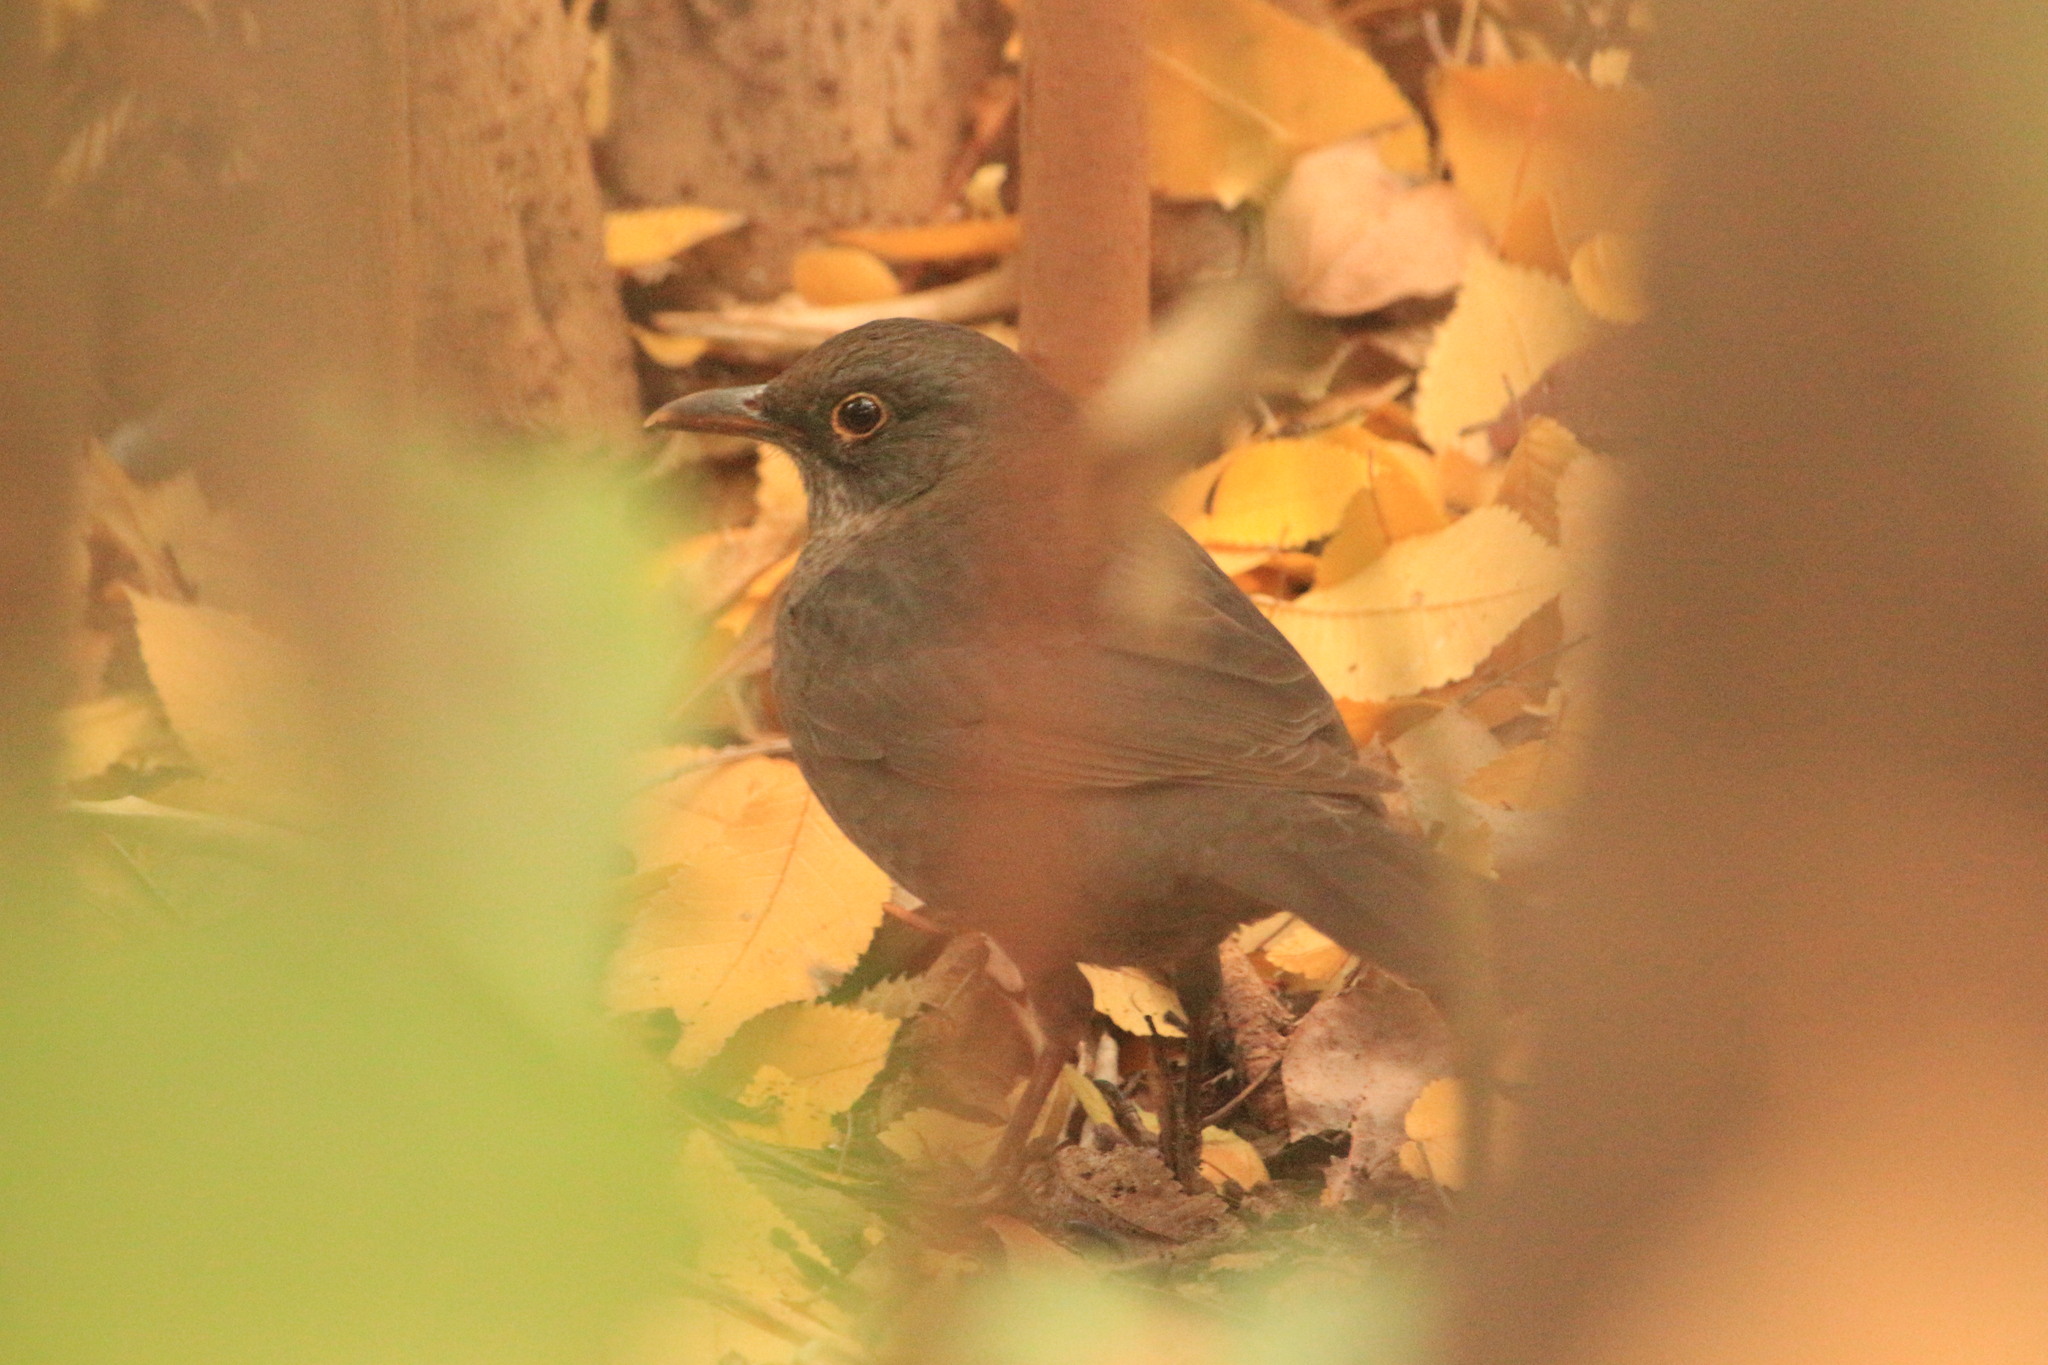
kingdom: Animalia
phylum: Chordata
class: Aves
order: Passeriformes
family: Turdidae
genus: Turdus
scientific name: Turdus merula
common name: Common blackbird
